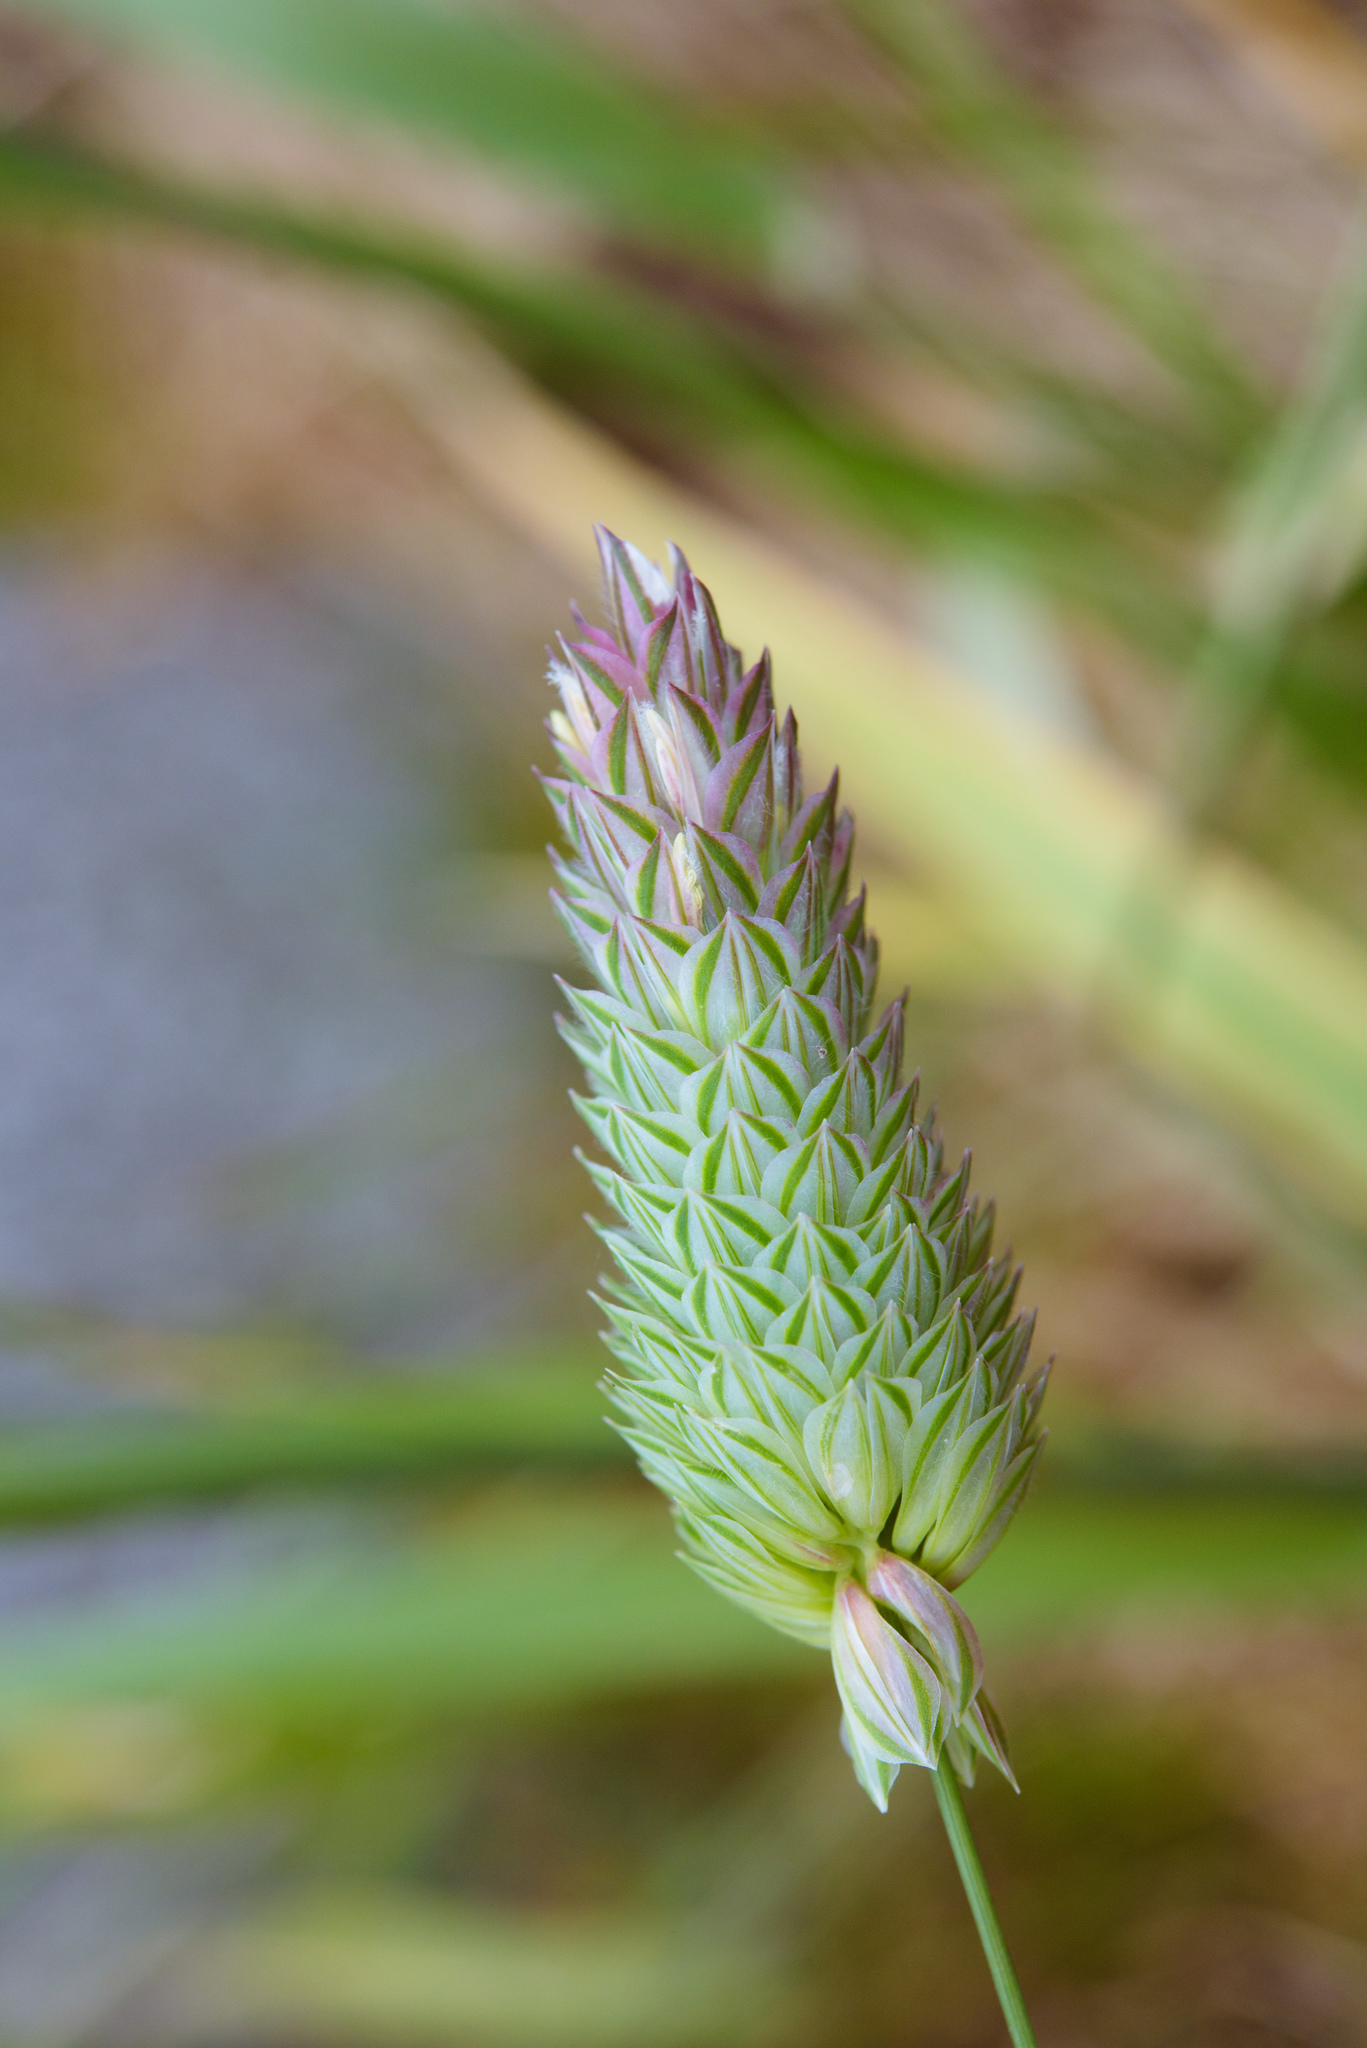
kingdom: Plantae
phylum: Tracheophyta
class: Liliopsida
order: Poales
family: Poaceae
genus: Phalaris
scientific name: Phalaris canariensis
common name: Annual canarygrass
